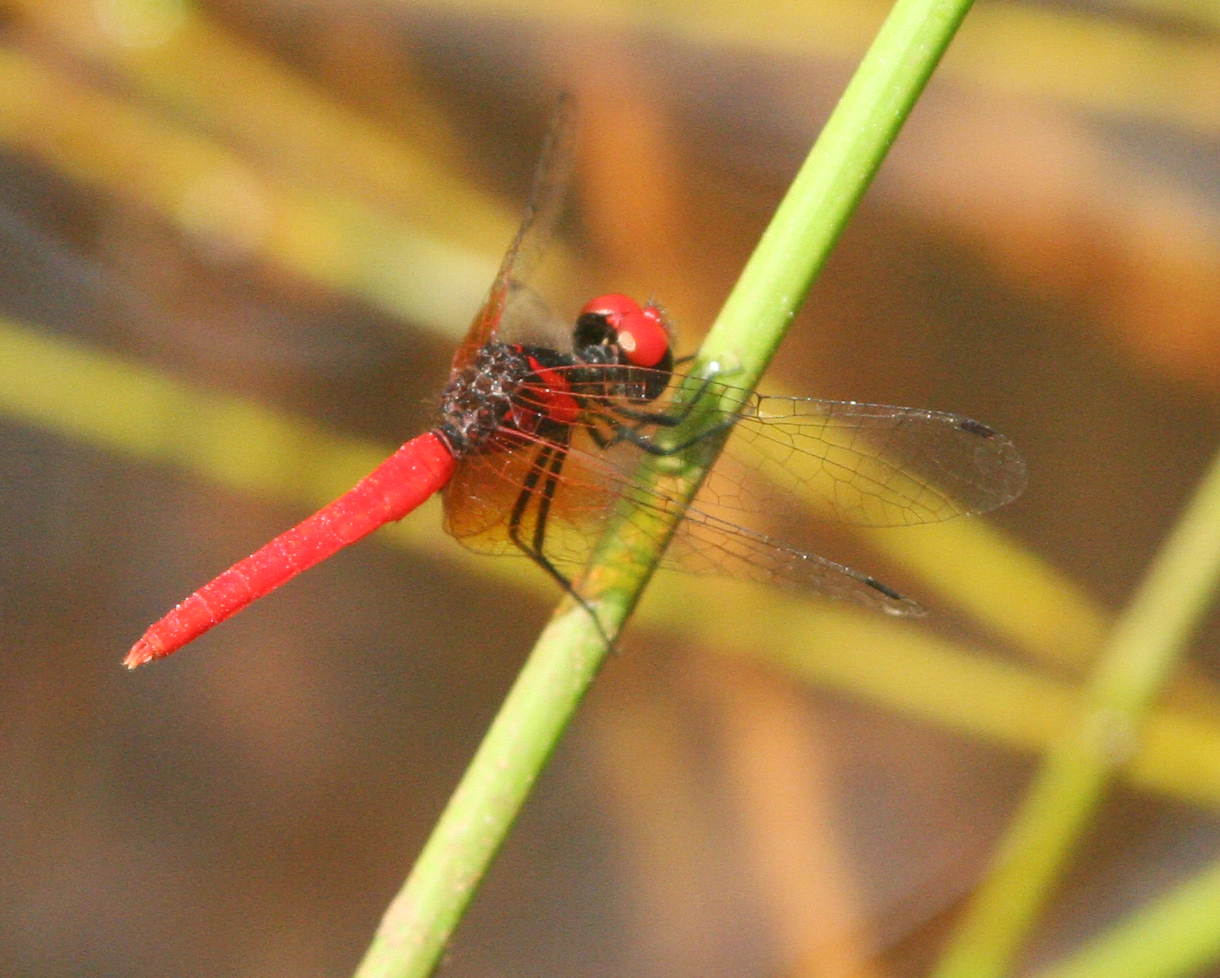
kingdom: Animalia
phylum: Arthropoda
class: Insecta
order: Odonata
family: Libellulidae
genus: Nannophya
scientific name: Nannophya pygmaea
